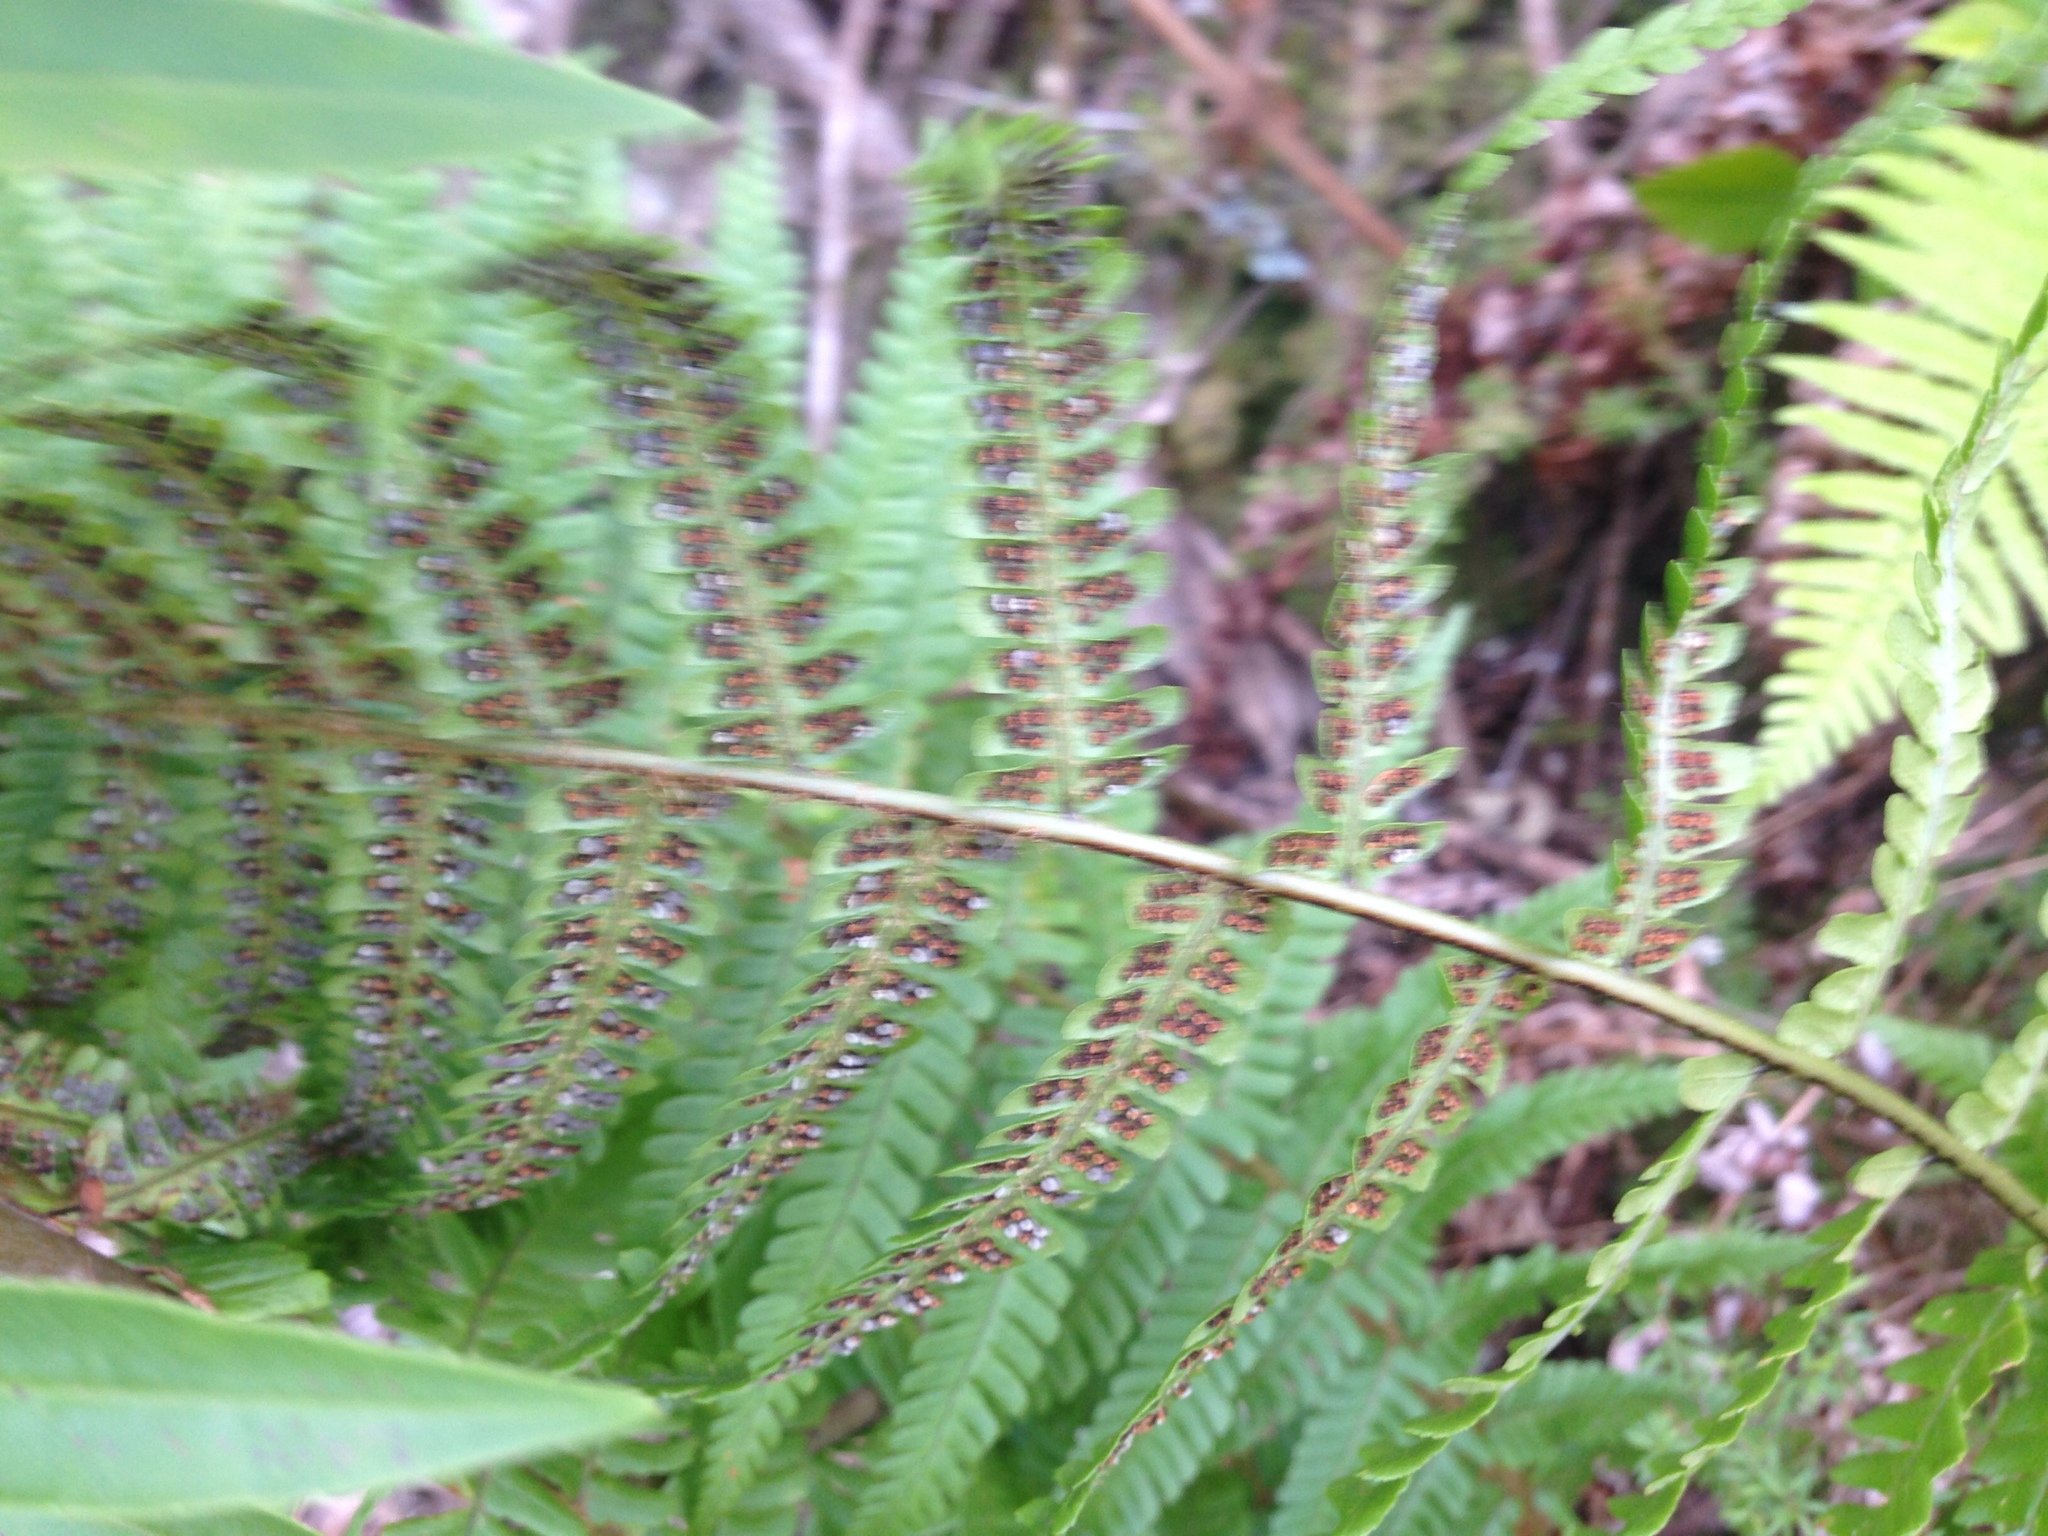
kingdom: Plantae
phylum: Tracheophyta
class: Polypodiopsida
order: Polypodiales
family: Dryopteridaceae
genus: Dryopteris
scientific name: Dryopteris filix-mas
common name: Male fern
